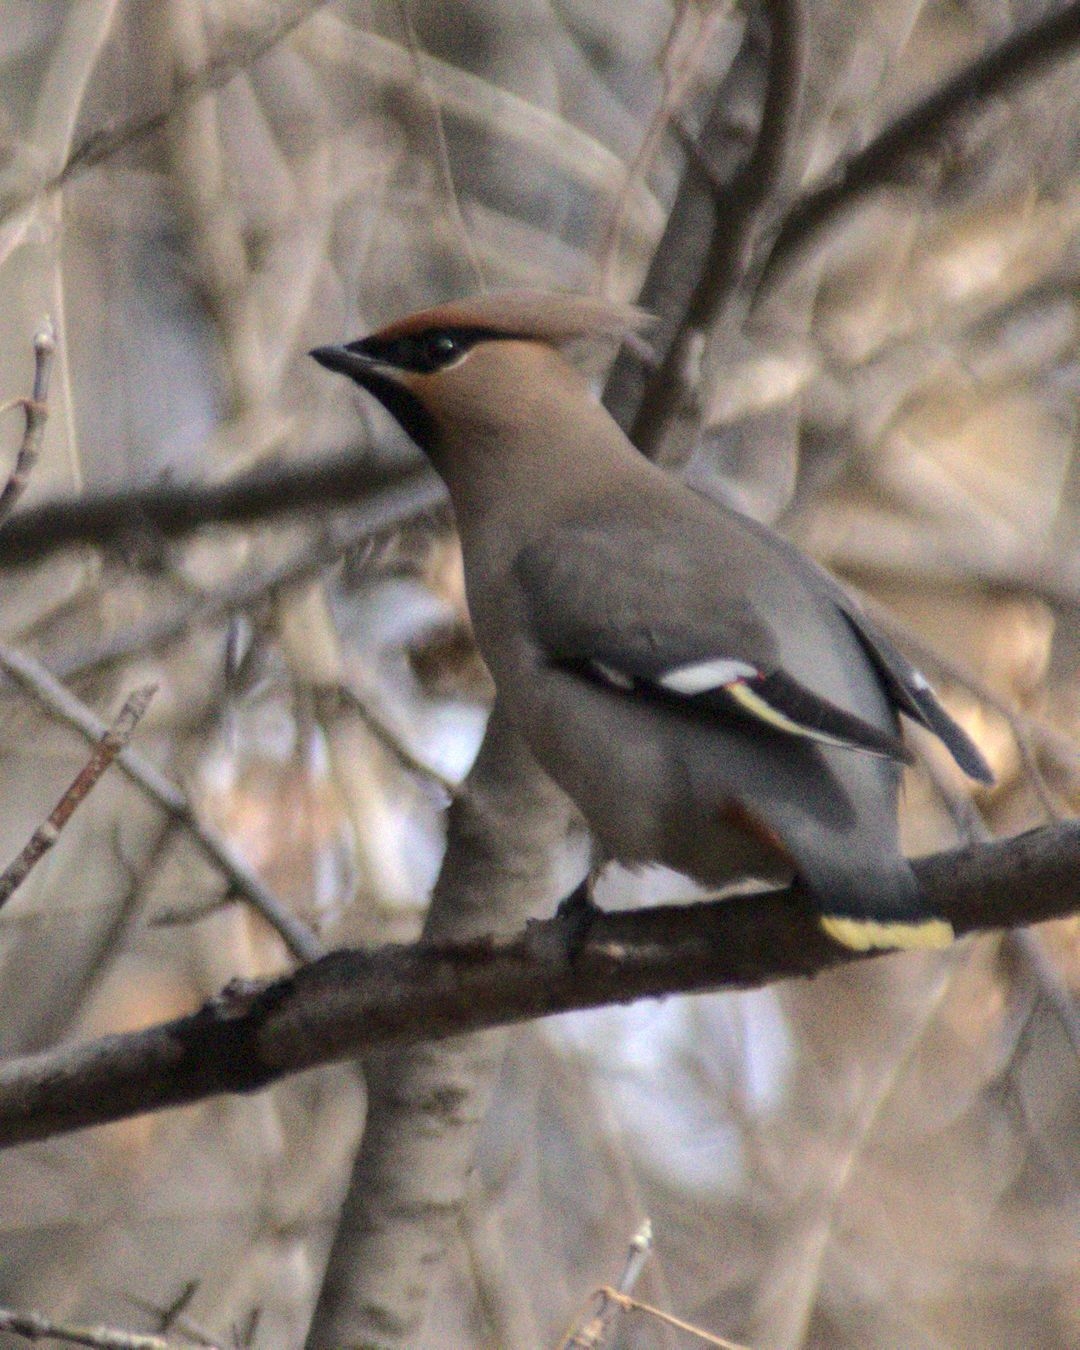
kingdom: Animalia
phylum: Chordata
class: Aves
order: Passeriformes
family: Bombycillidae
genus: Bombycilla
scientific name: Bombycilla garrulus
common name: Bohemian waxwing
